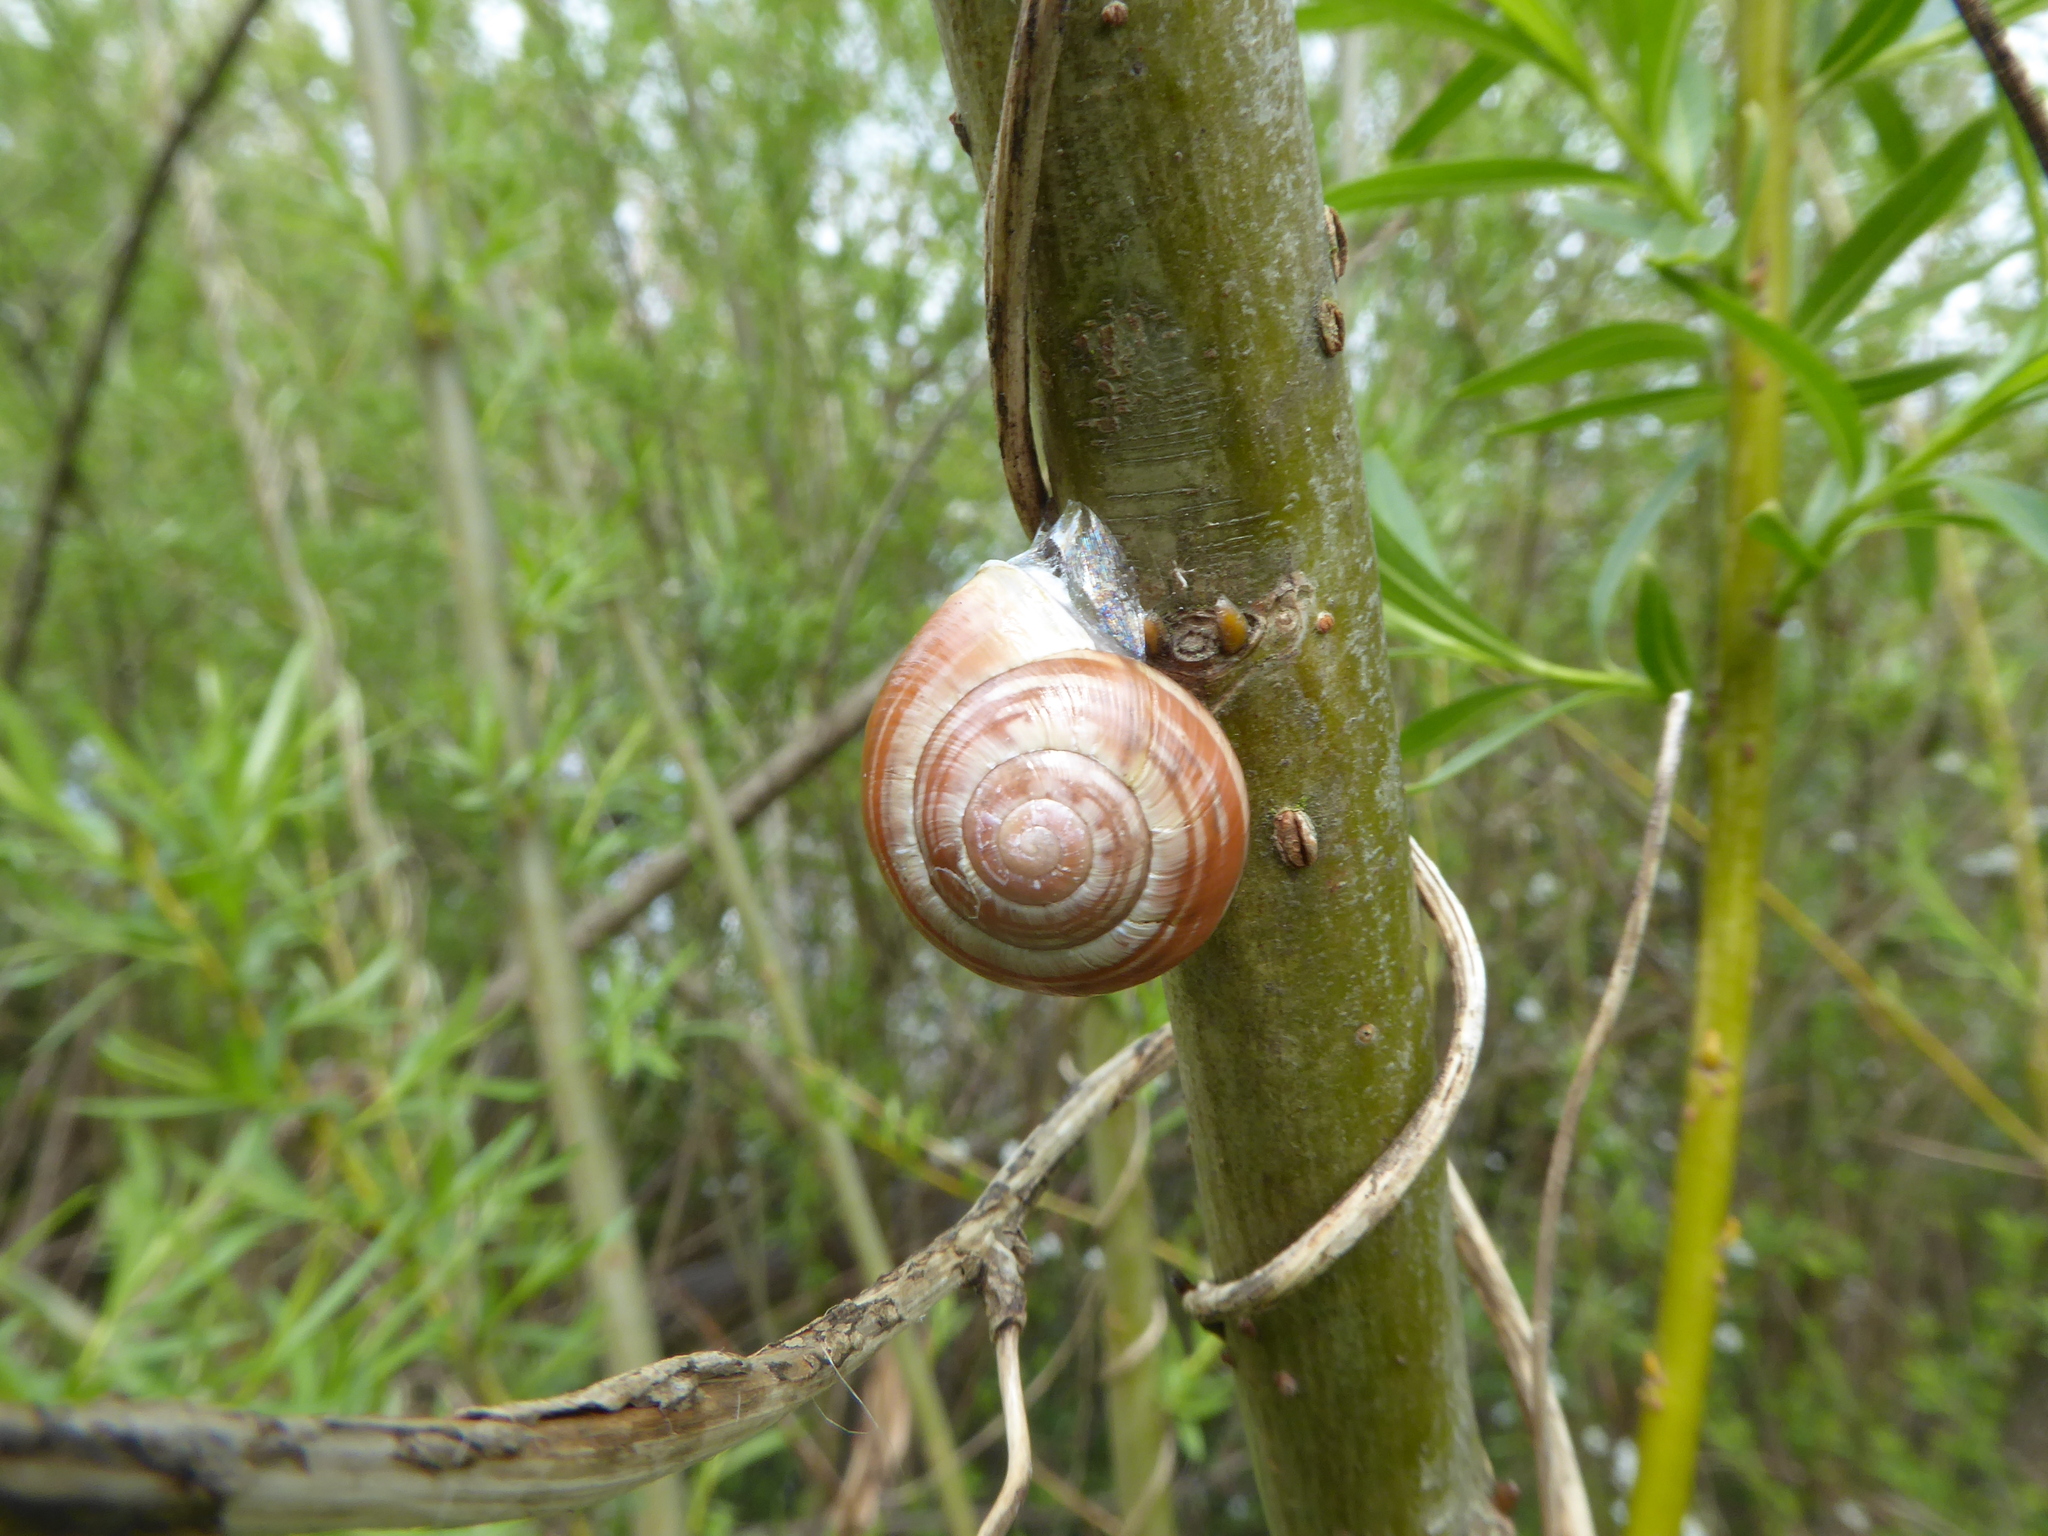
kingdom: Animalia
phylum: Mollusca
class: Gastropoda
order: Stylommatophora
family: Helicidae
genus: Cepaea
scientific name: Cepaea hortensis
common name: White-lip gardensnail
